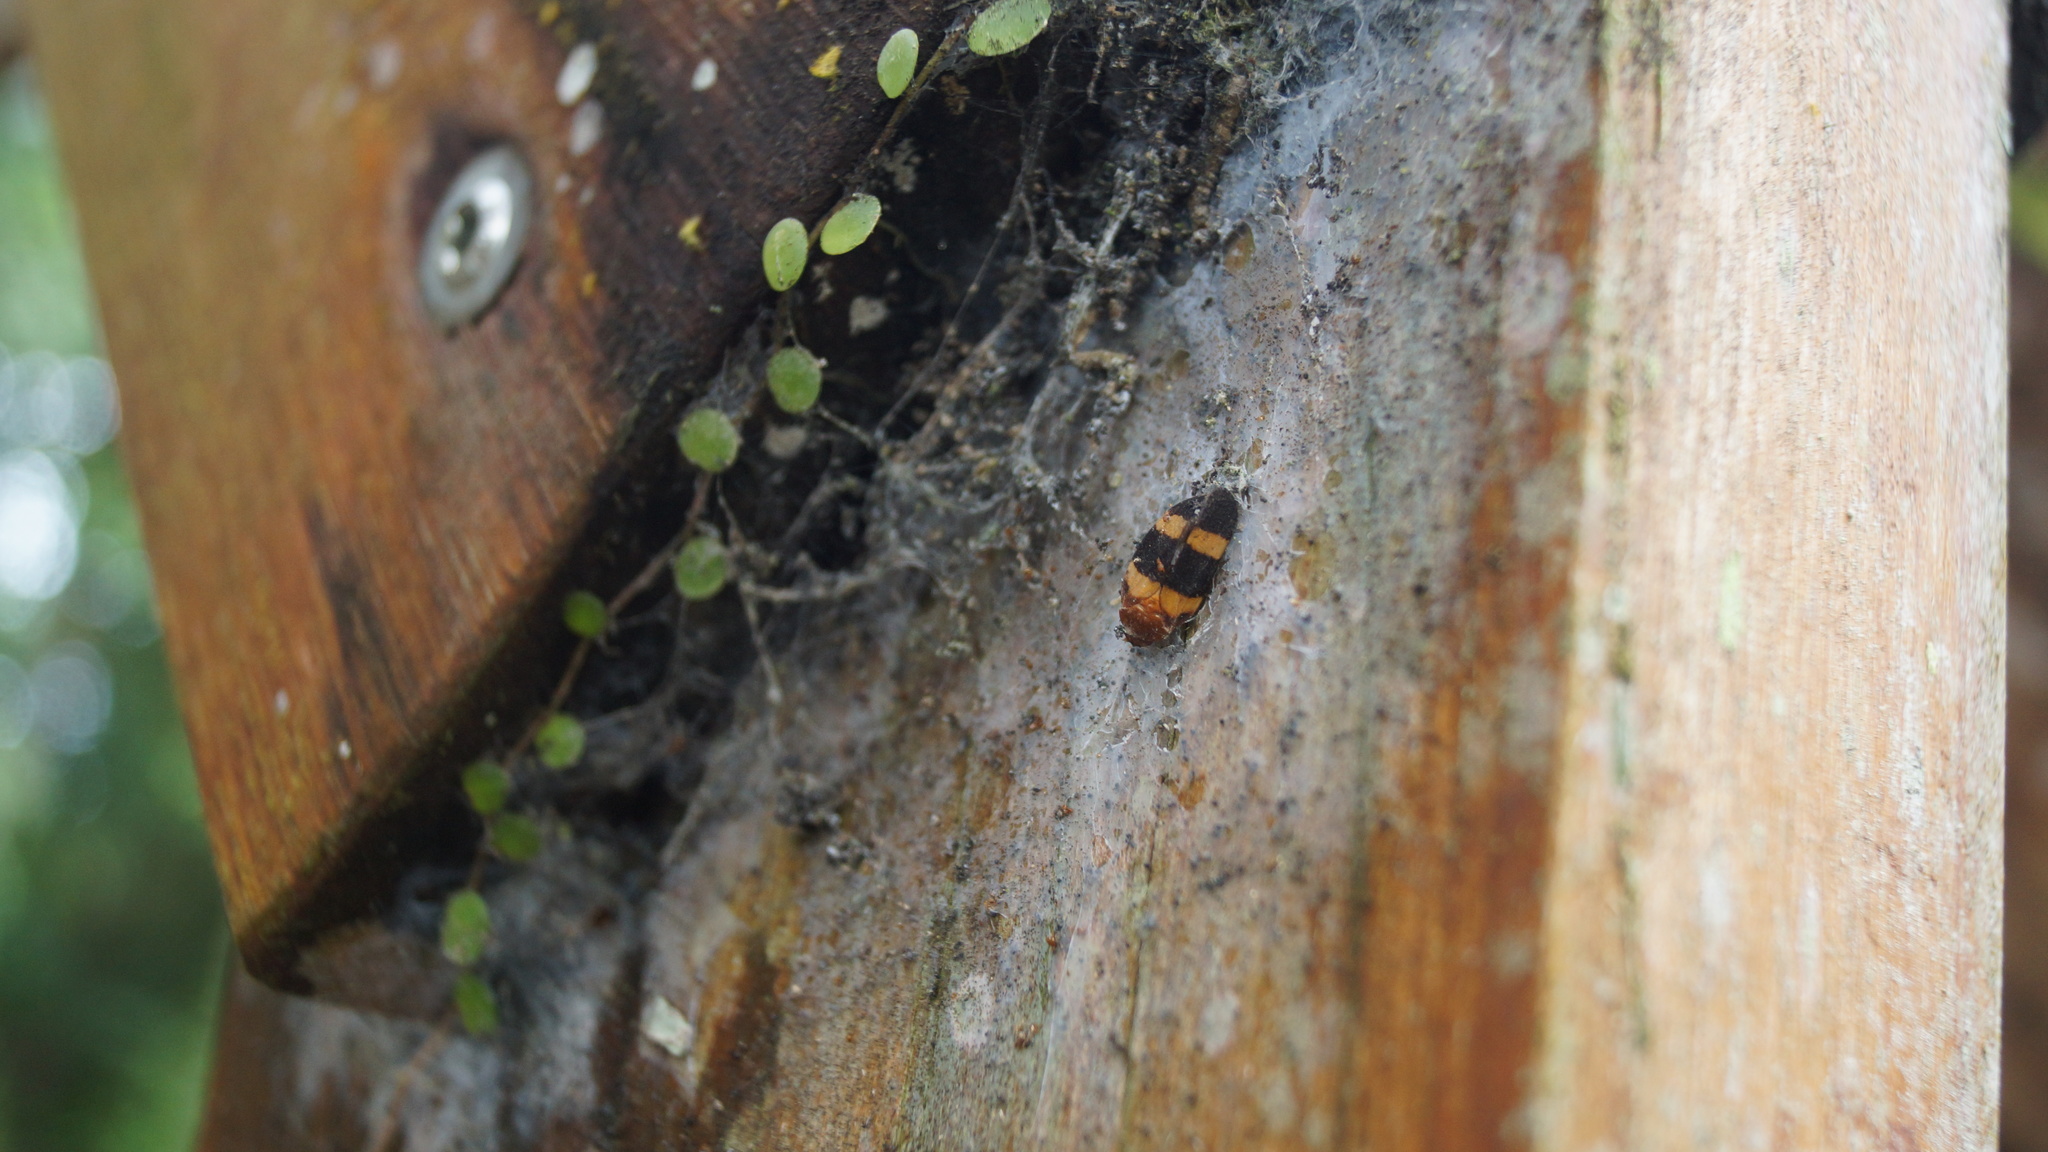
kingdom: Animalia
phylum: Arthropoda
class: Insecta
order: Hemiptera
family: Cercopidae
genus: Sphenorhina
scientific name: Sphenorhina rubra
